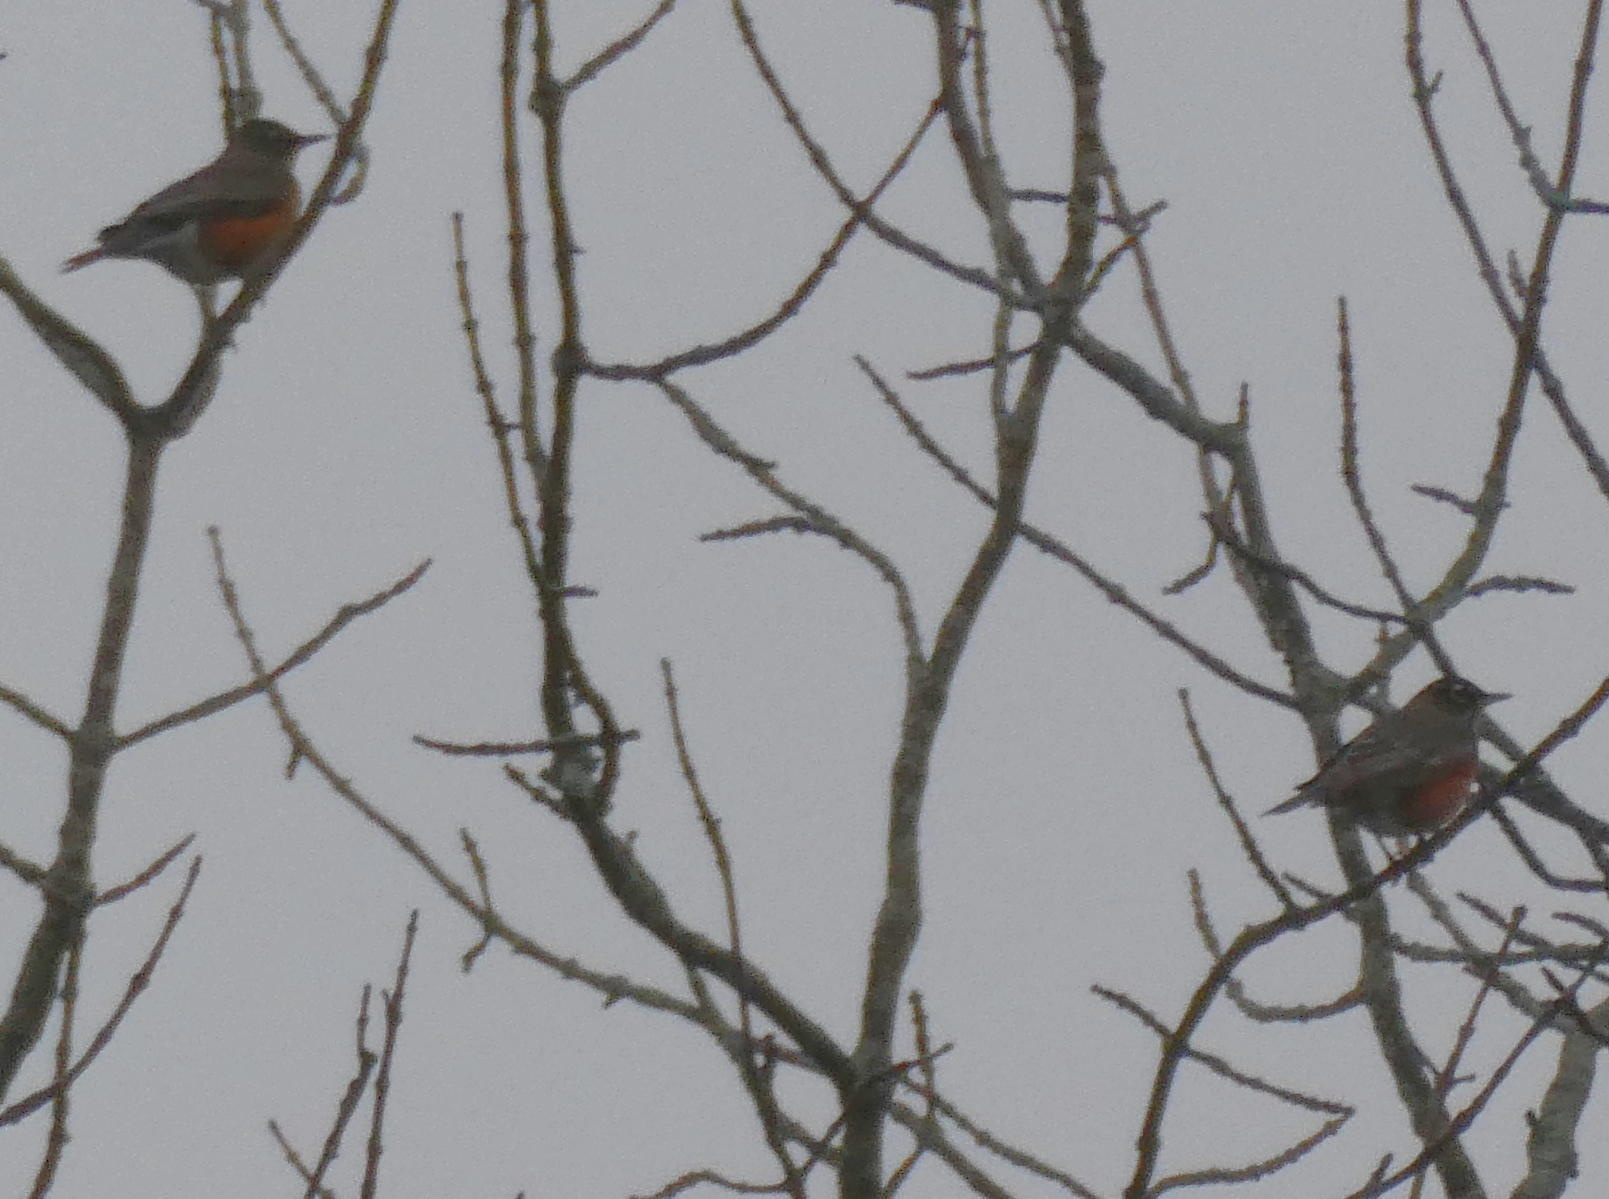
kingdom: Animalia
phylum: Chordata
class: Aves
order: Passeriformes
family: Turdidae
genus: Turdus
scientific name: Turdus migratorius
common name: American robin
